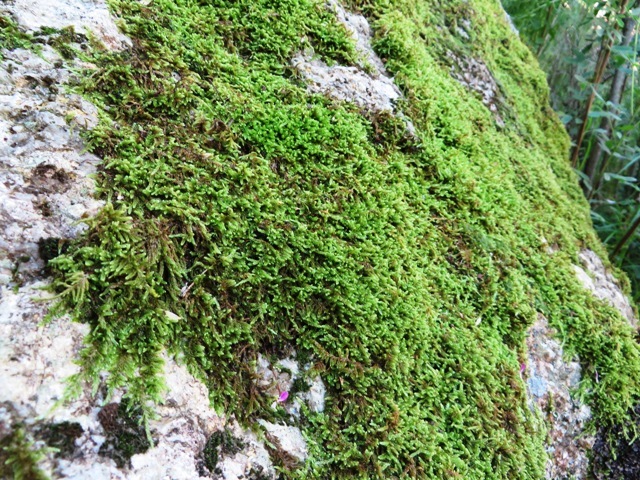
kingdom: Plantae
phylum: Bryophyta
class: Bryopsida
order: Hypnales
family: Hypnaceae
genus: Hypnum
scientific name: Hypnum cupressiforme
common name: Cypress-leaved plait-moss
